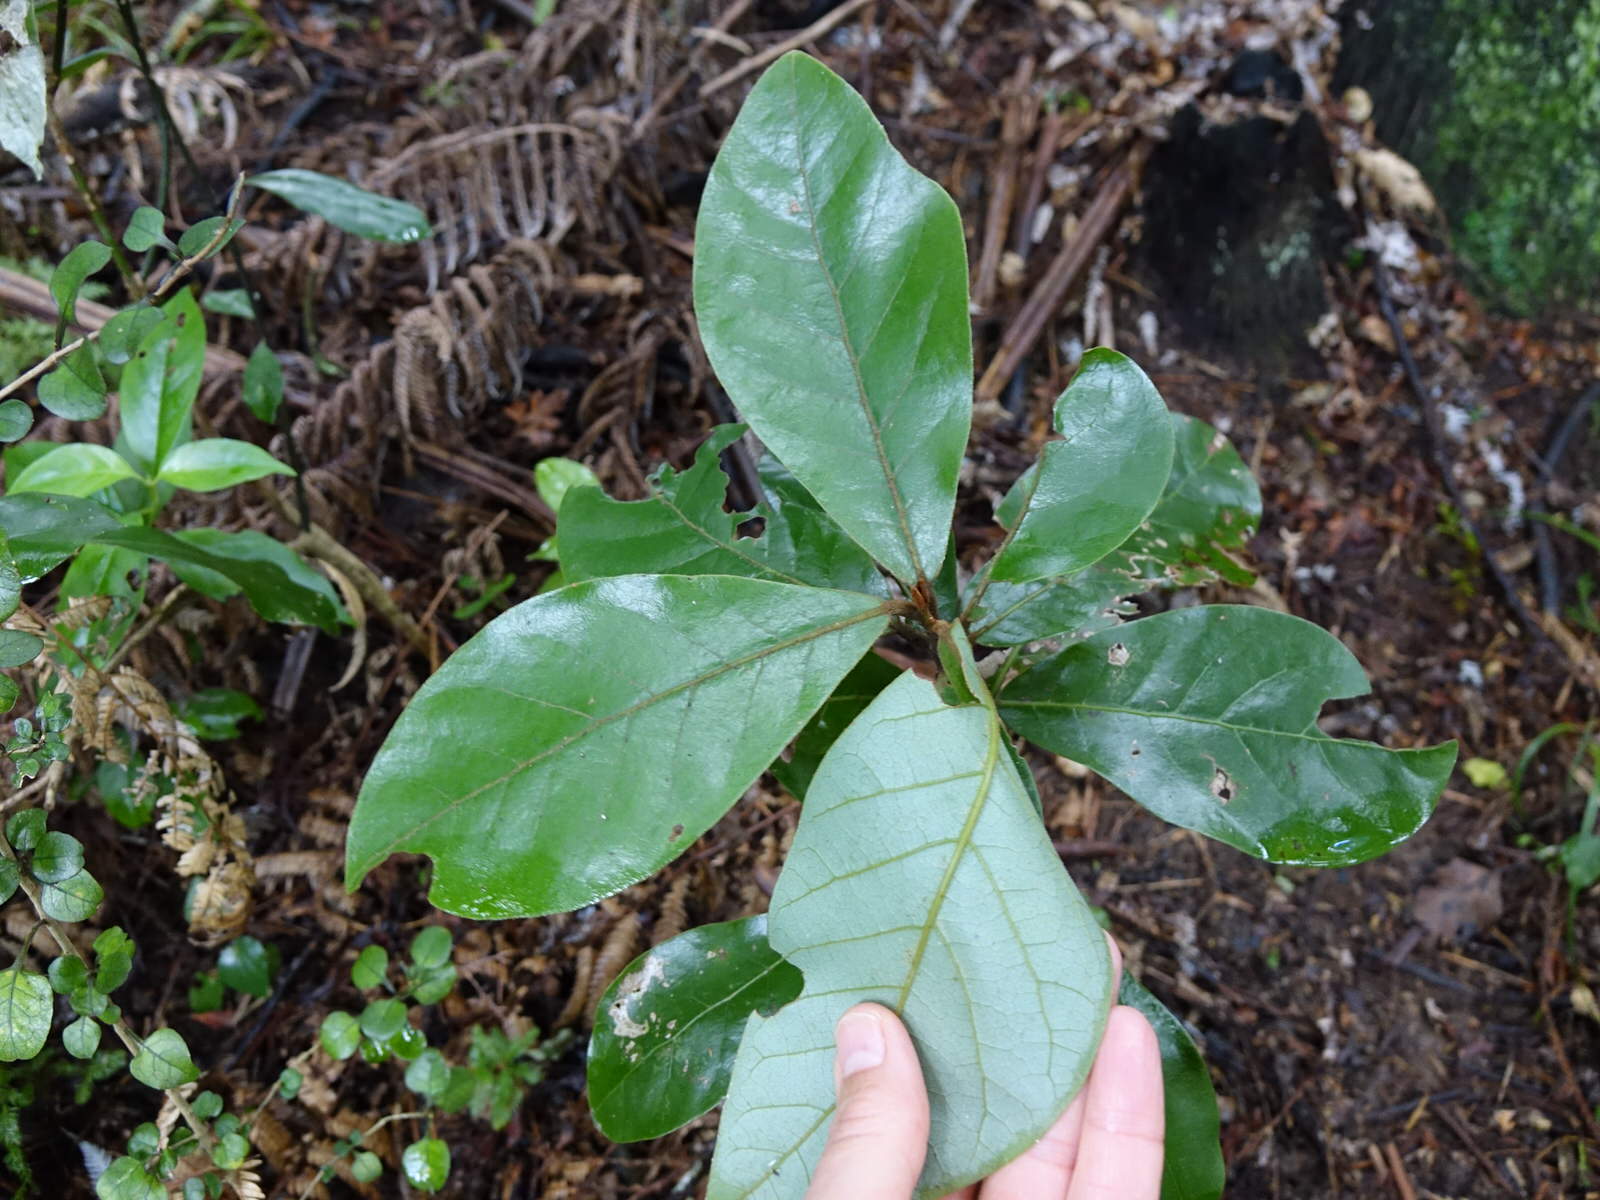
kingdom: Plantae
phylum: Tracheophyta
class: Magnoliopsida
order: Laurales
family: Lauraceae
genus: Beilschmiedia
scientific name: Beilschmiedia tarairi
